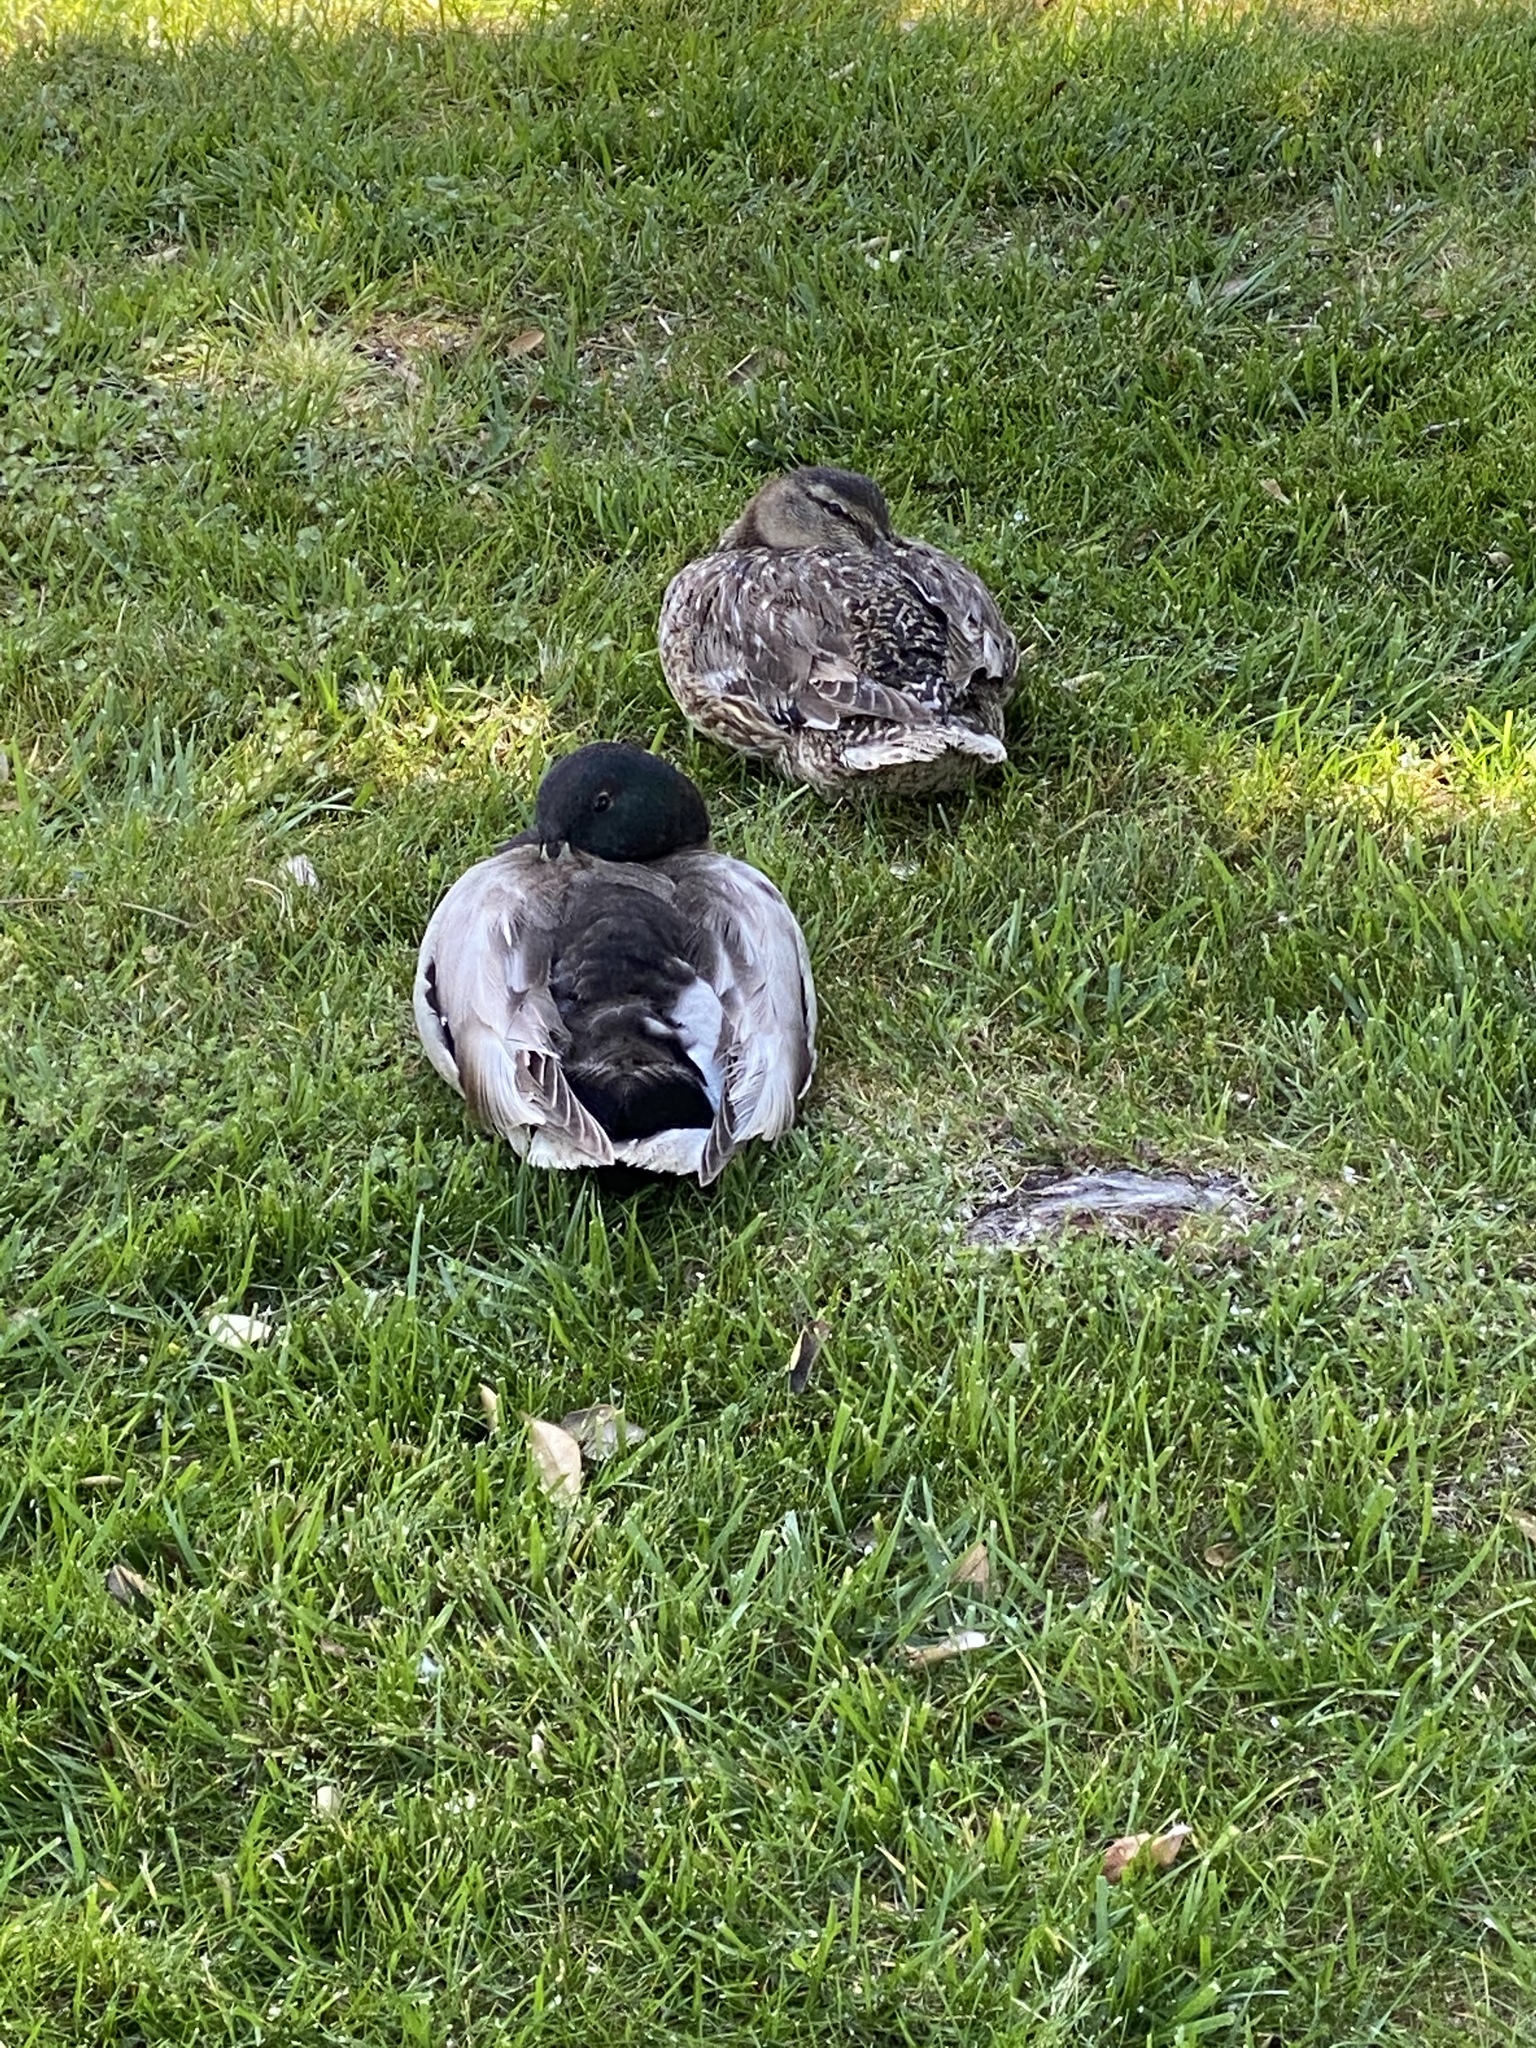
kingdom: Animalia
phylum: Chordata
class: Aves
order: Anseriformes
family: Anatidae
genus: Anas
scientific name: Anas platyrhynchos
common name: Mallard
